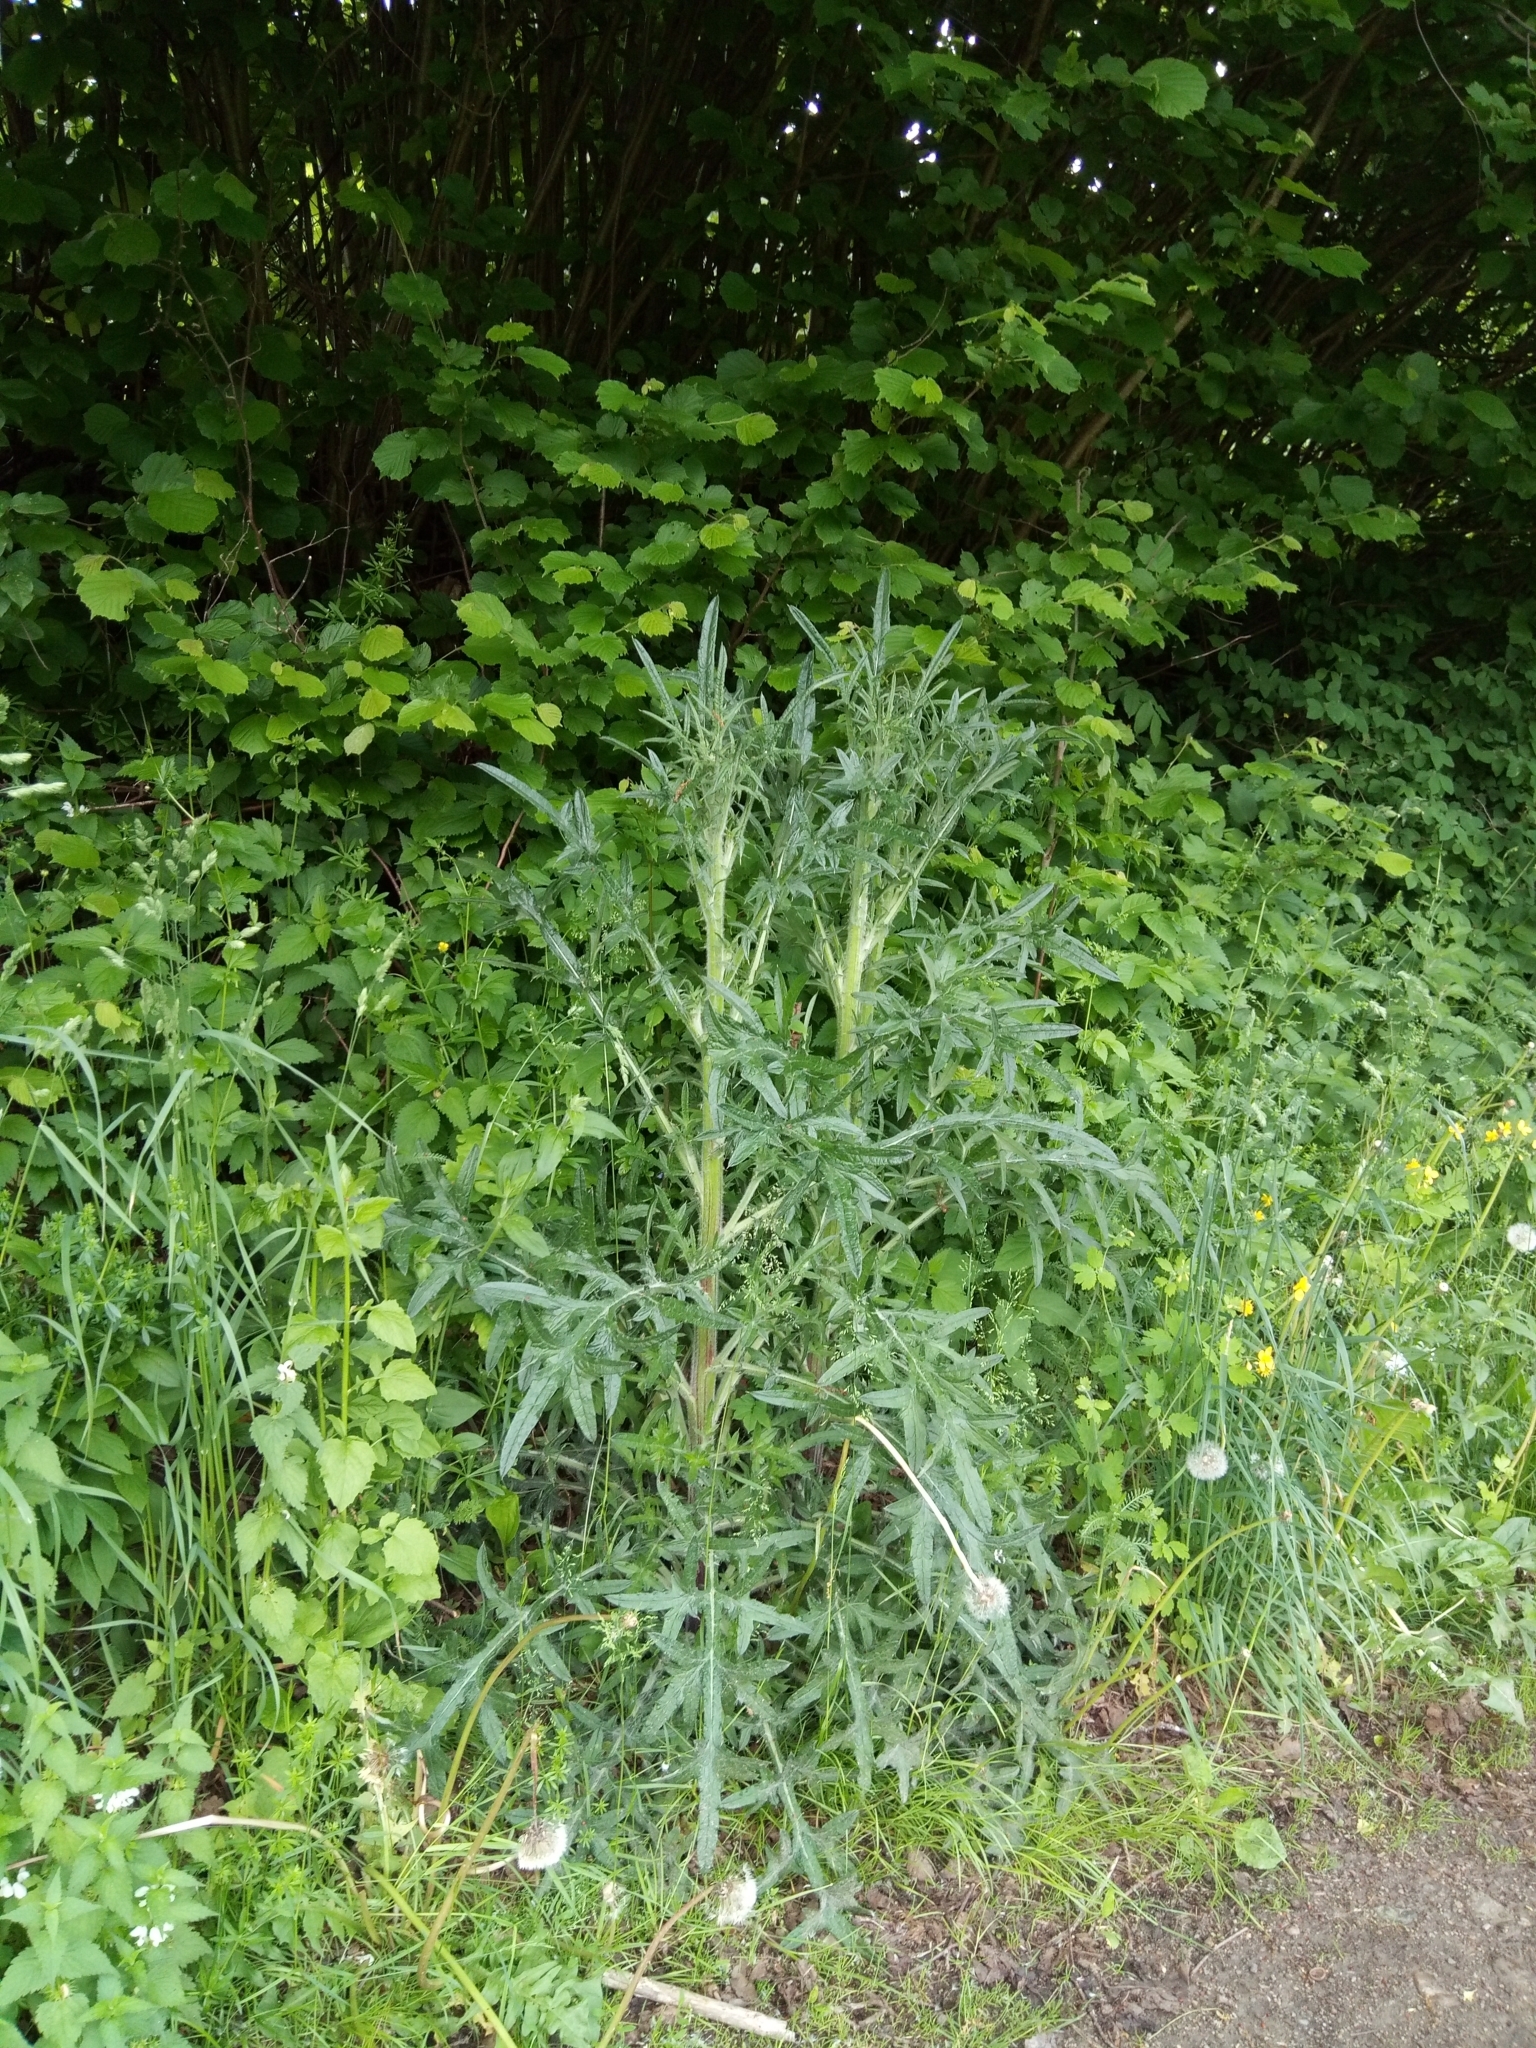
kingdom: Plantae
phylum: Tracheophyta
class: Magnoliopsida
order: Asterales
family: Asteraceae
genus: Cirsium
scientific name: Cirsium vulgare
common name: Bull thistle
